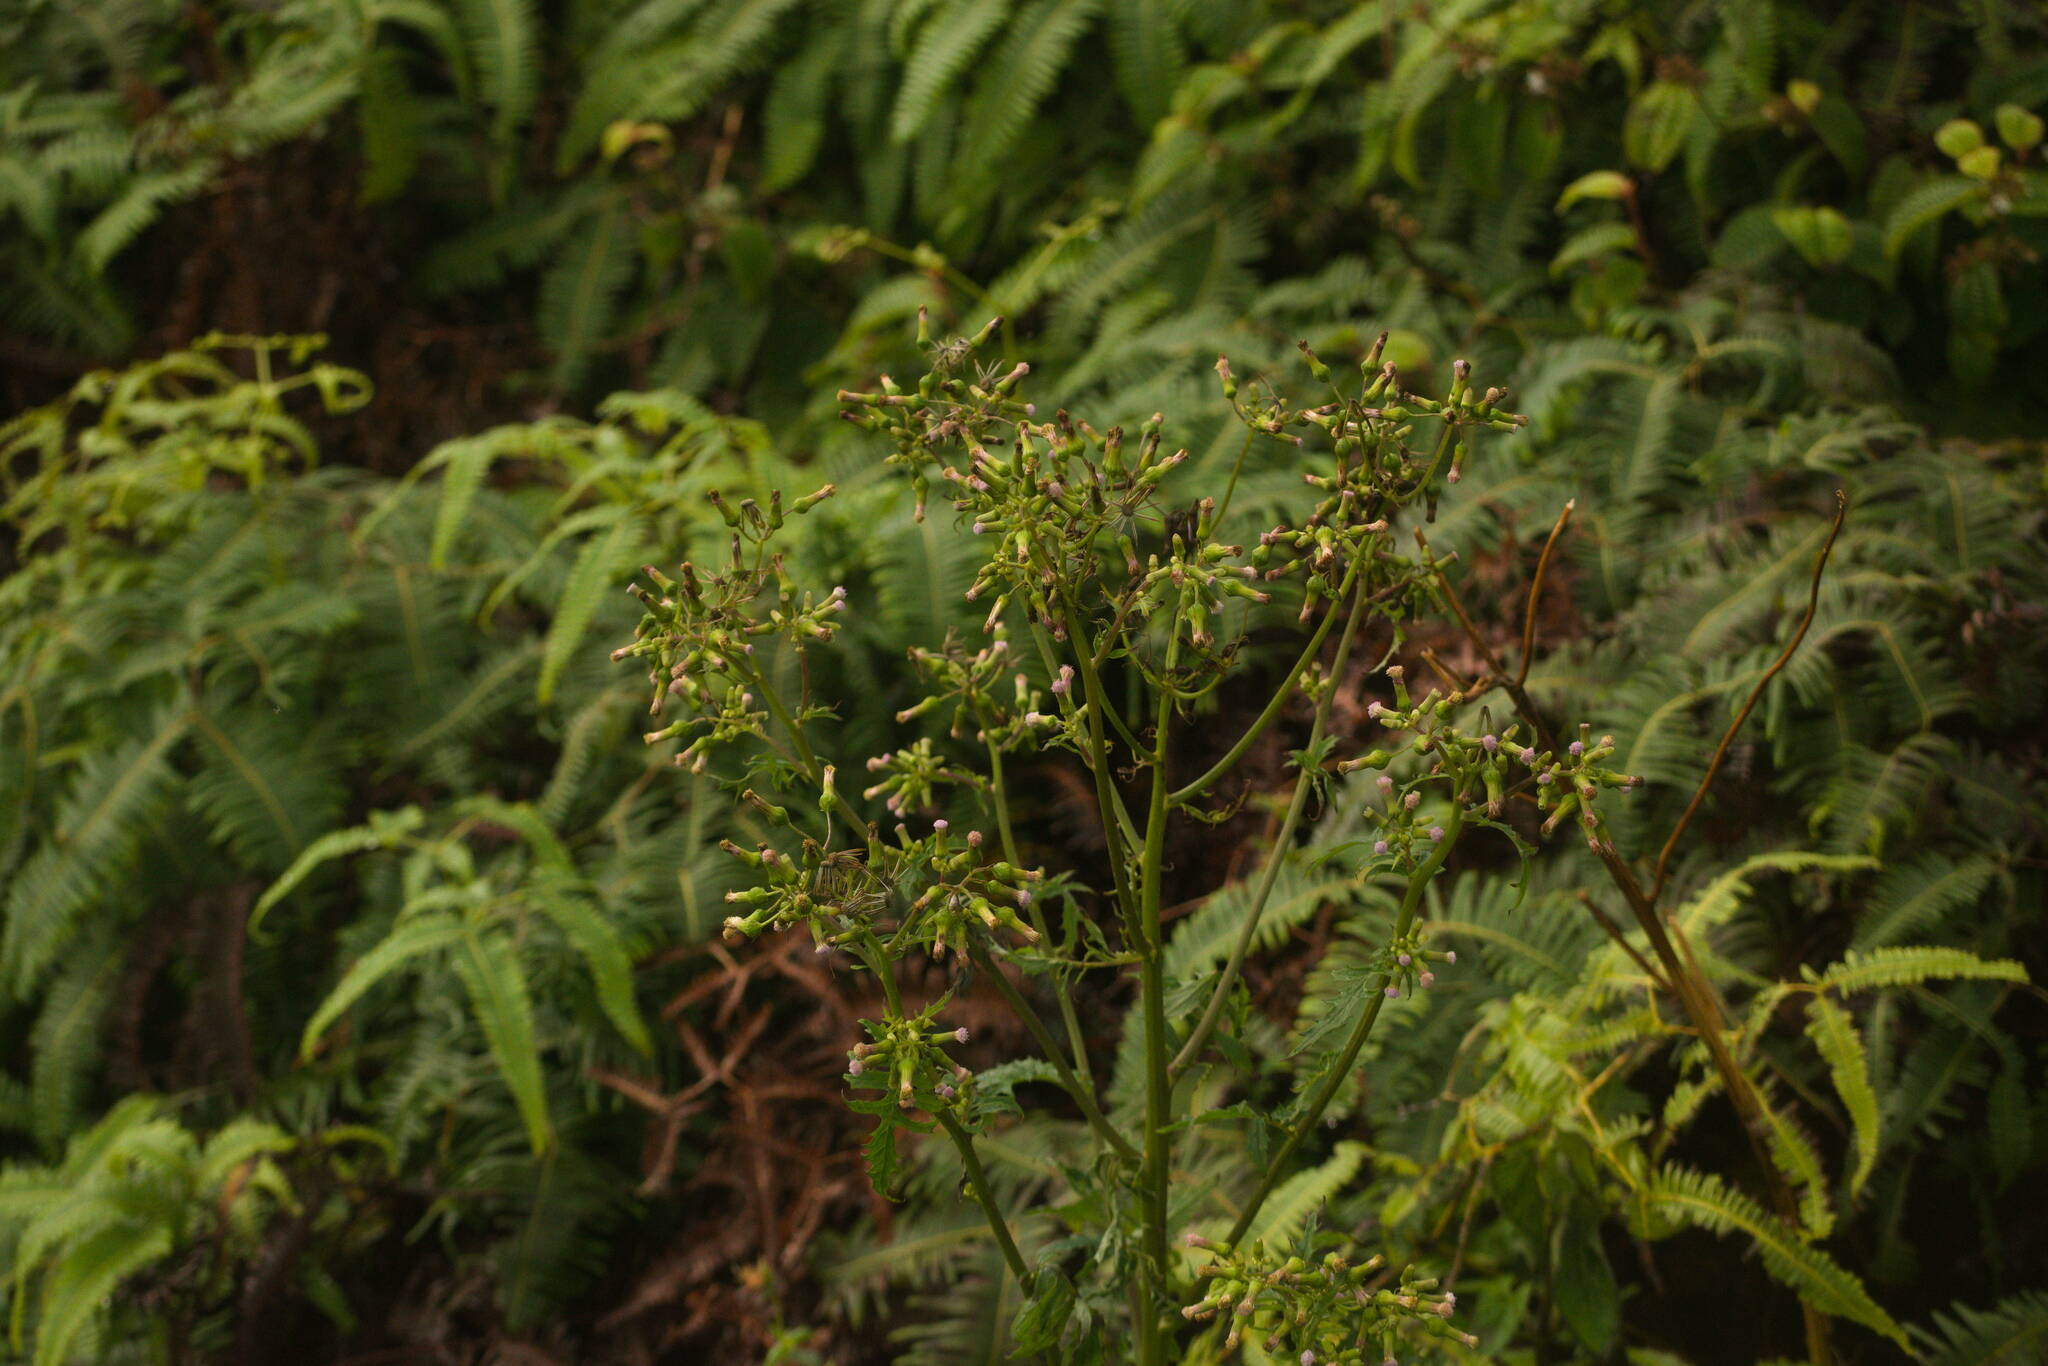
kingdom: Plantae
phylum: Tracheophyta
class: Magnoliopsida
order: Asterales
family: Asteraceae
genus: Erechtites
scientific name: Erechtites valerianifolius
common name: Tropical burnweed
